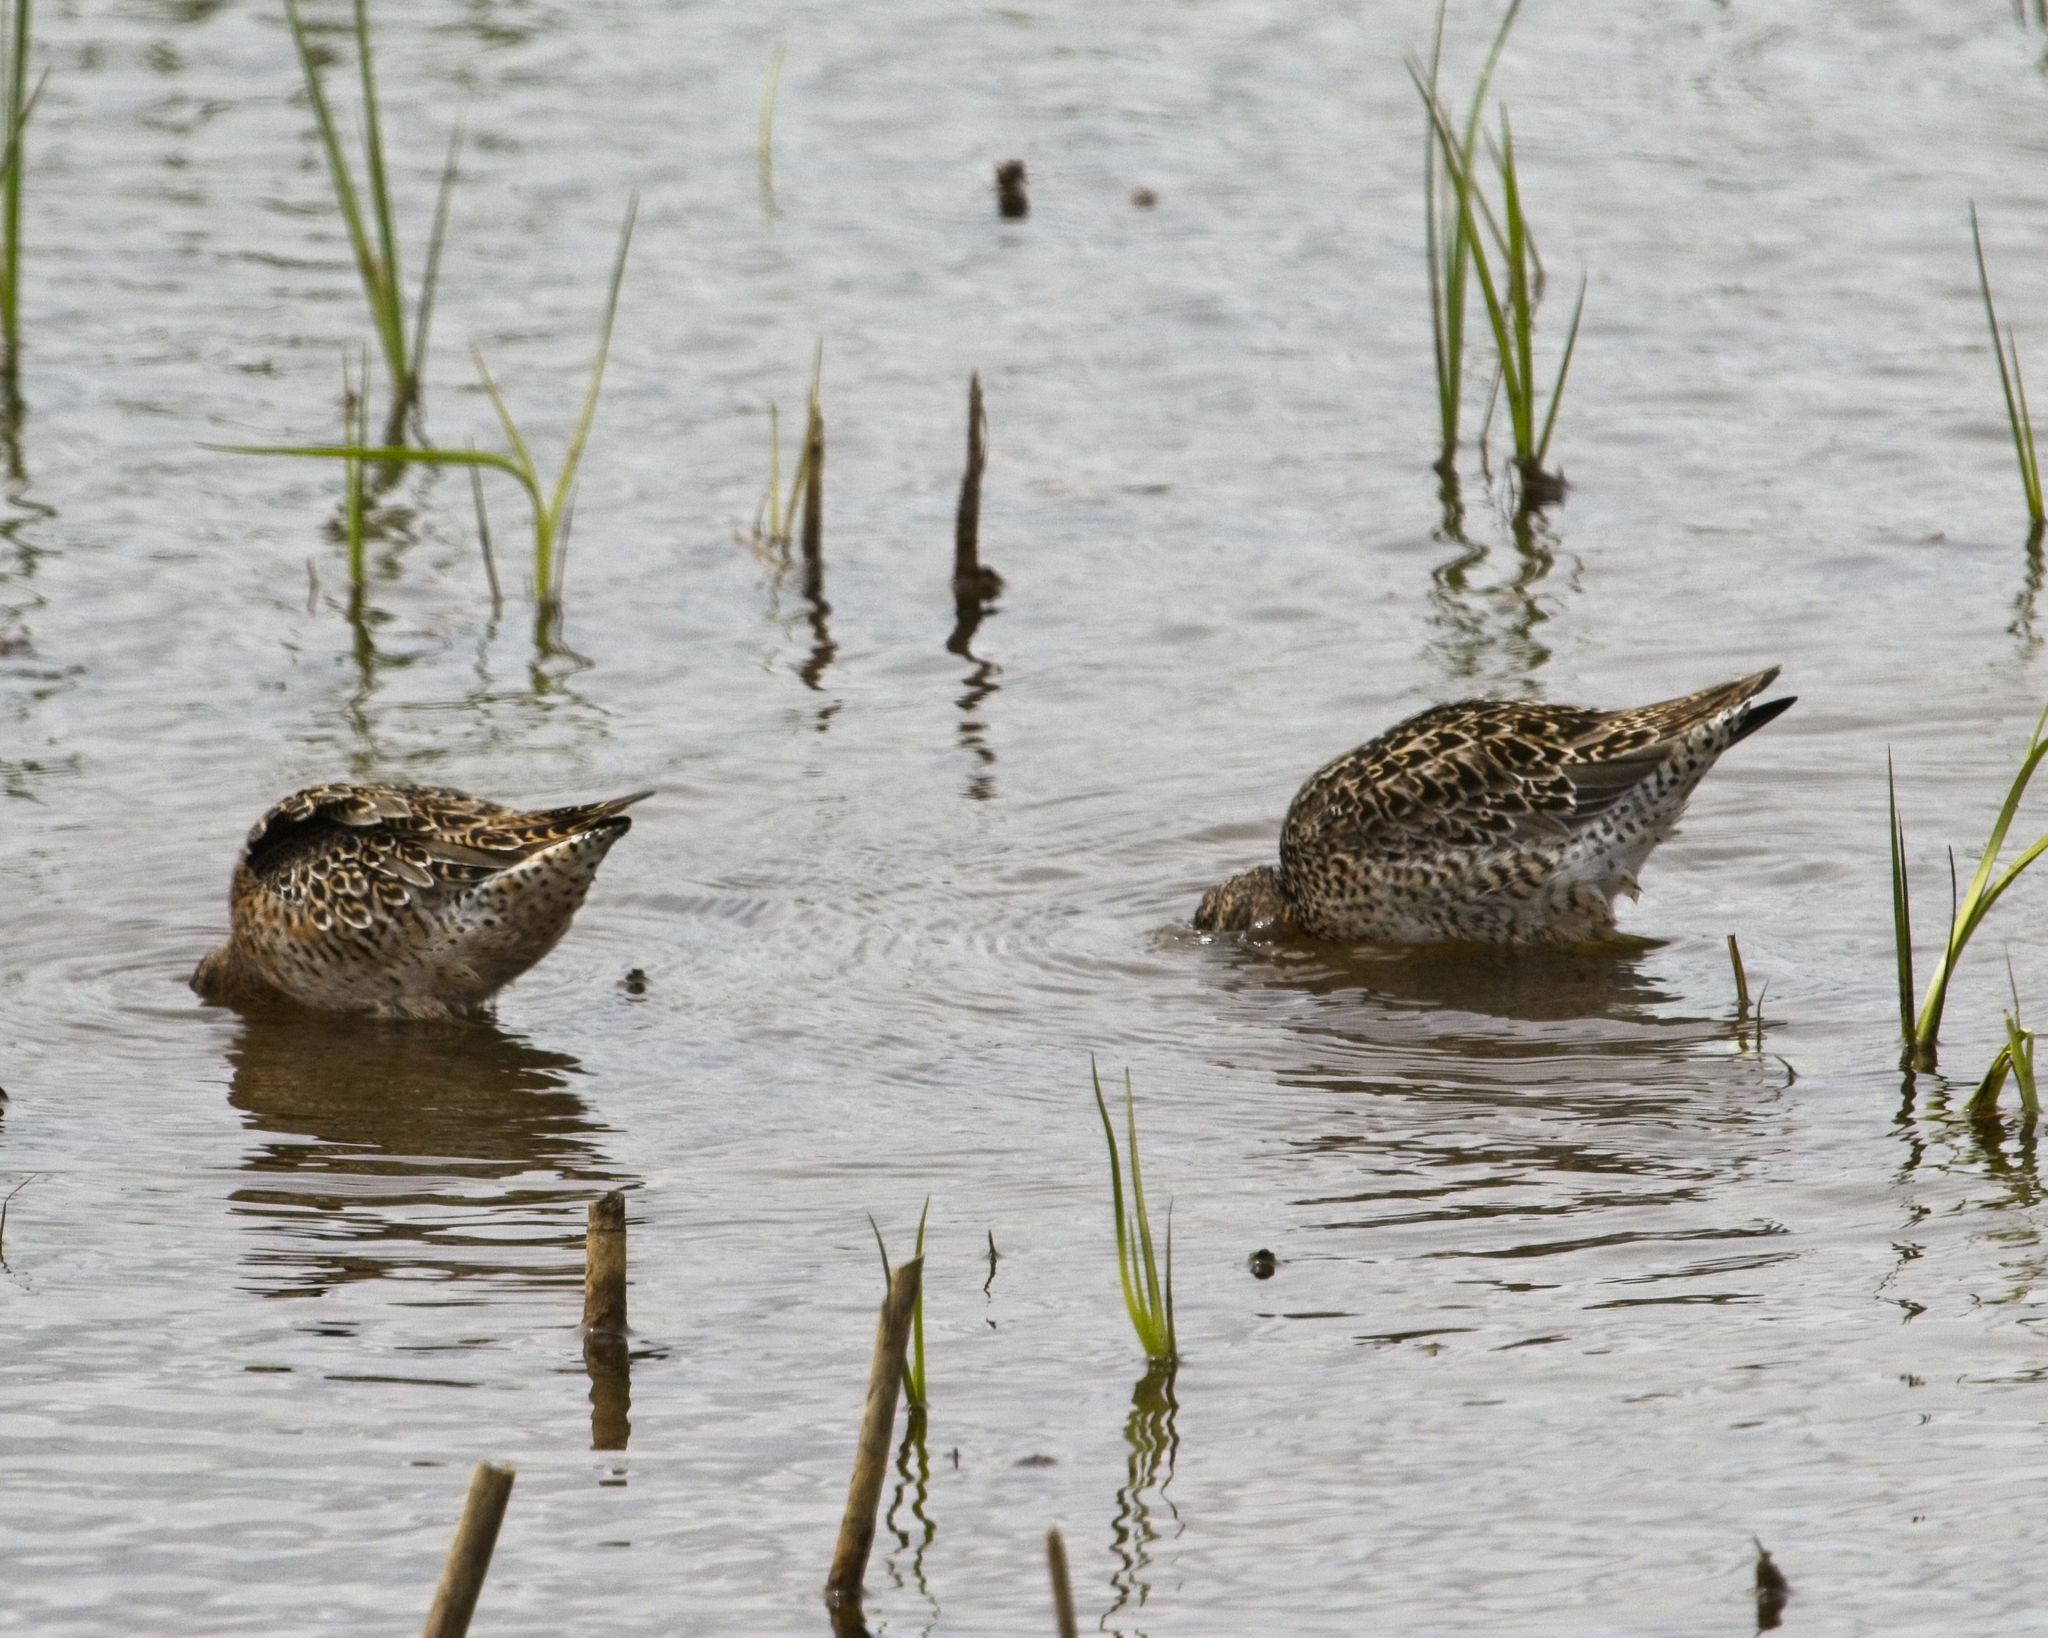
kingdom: Animalia
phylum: Chordata
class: Aves
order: Charadriiformes
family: Scolopacidae
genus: Limnodromus
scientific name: Limnodromus griseus
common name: Short-billed dowitcher
